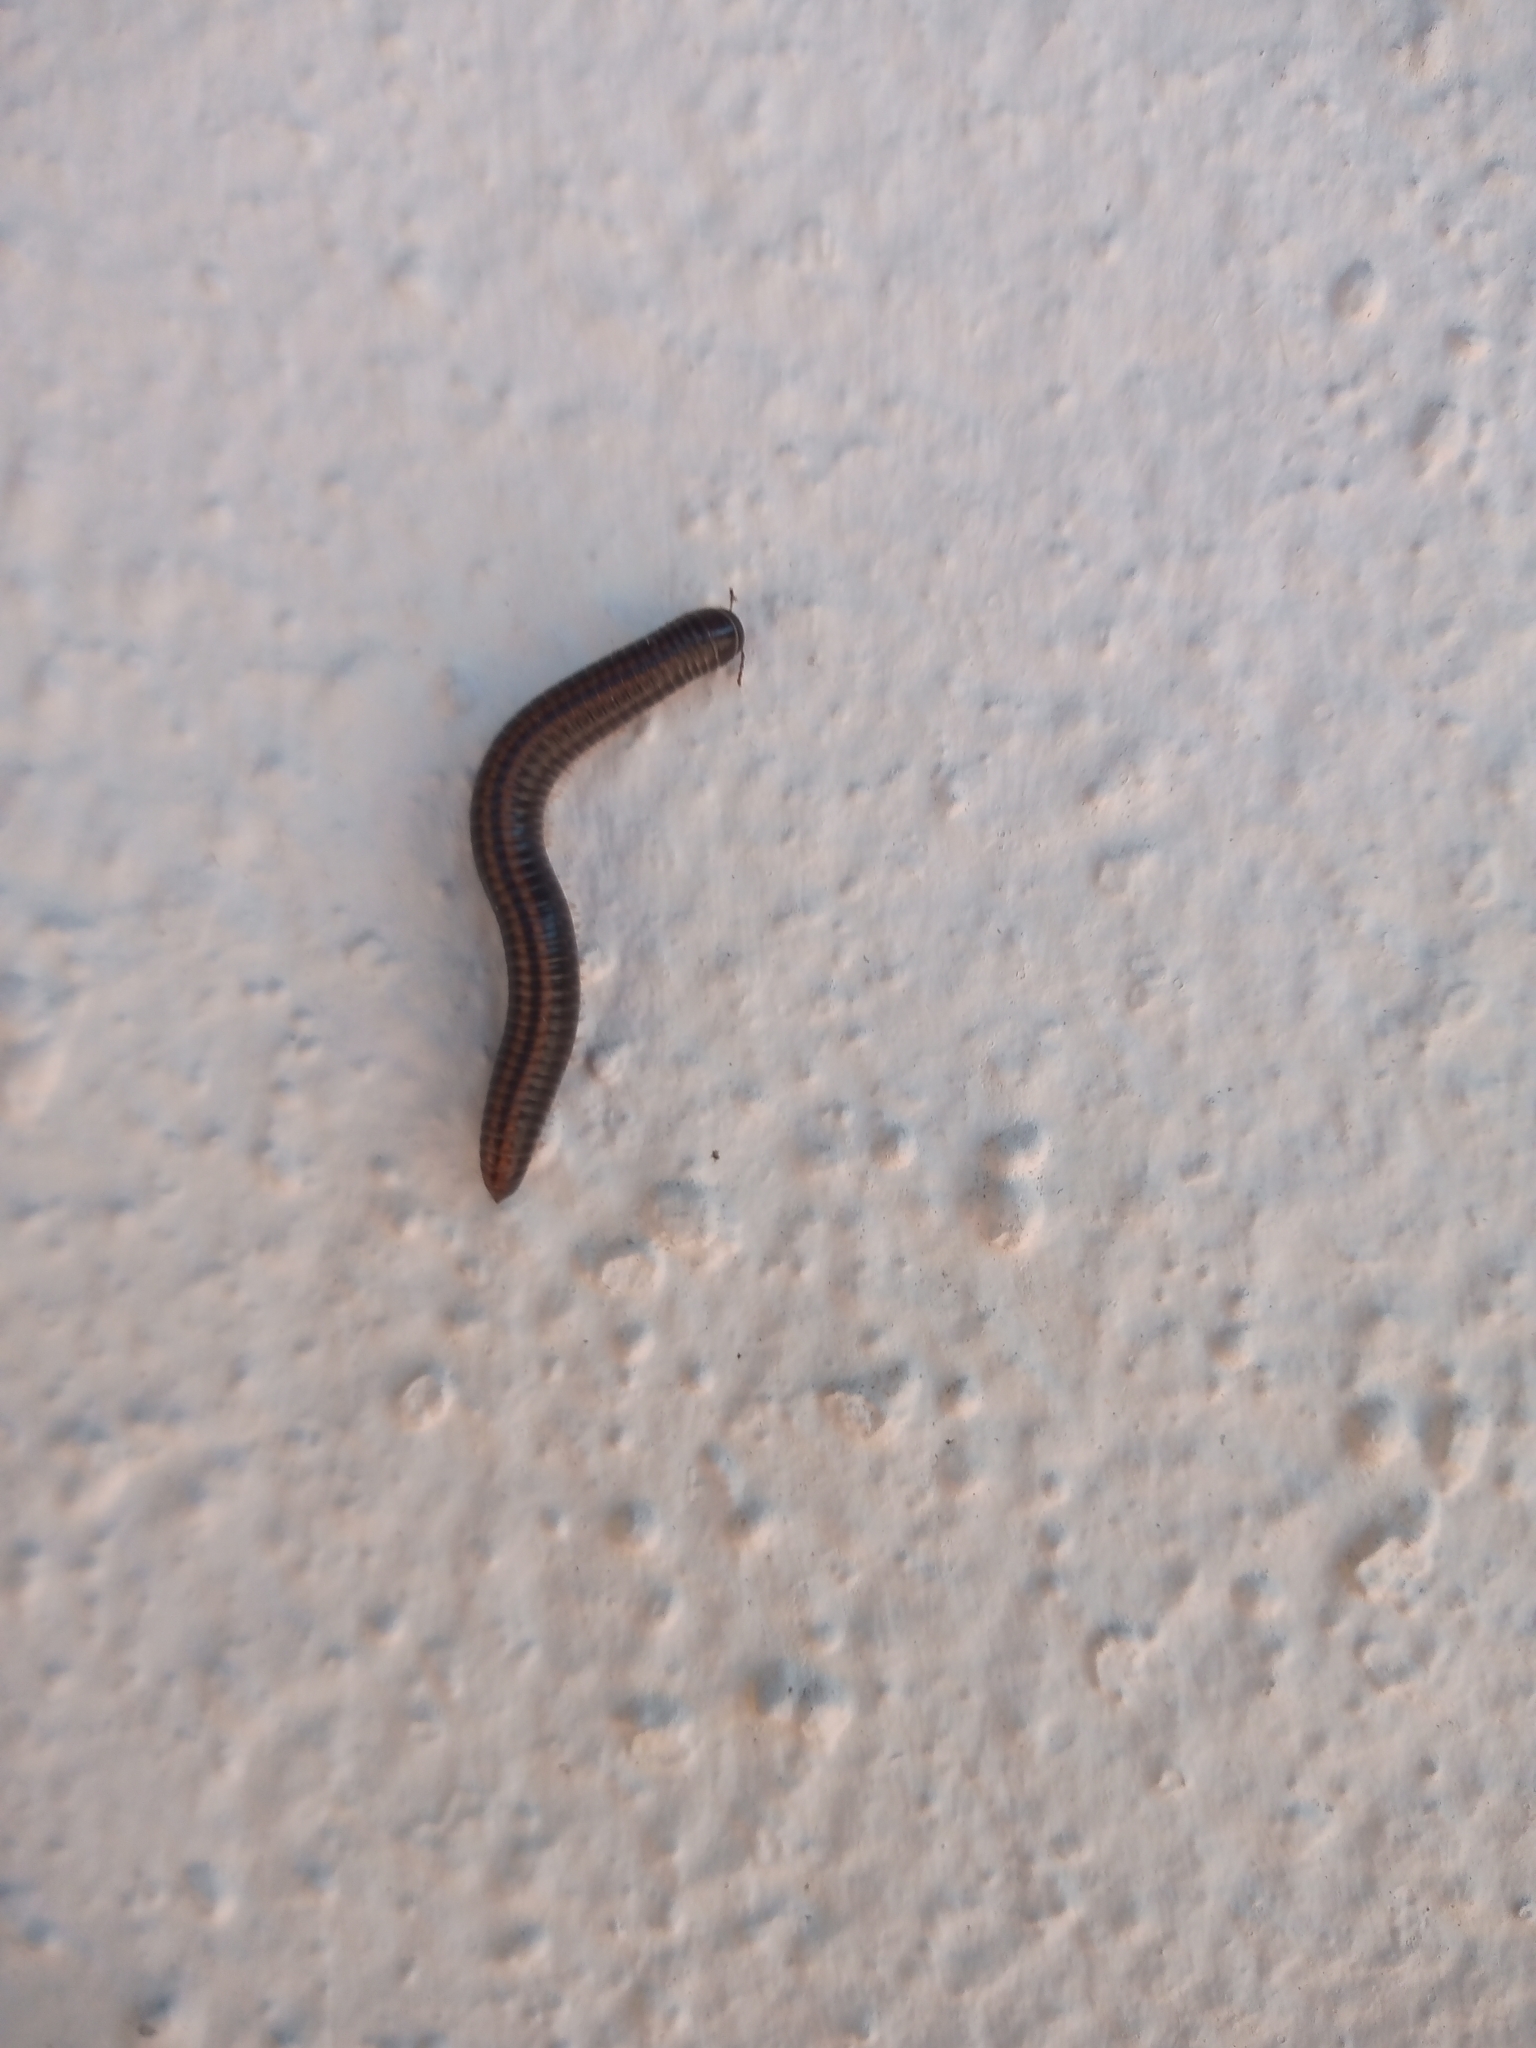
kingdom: Animalia
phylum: Arthropoda
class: Diplopoda
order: Julida
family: Julidae
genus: Ommatoiulus
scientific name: Ommatoiulus sabulosus
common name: Striped millipede
